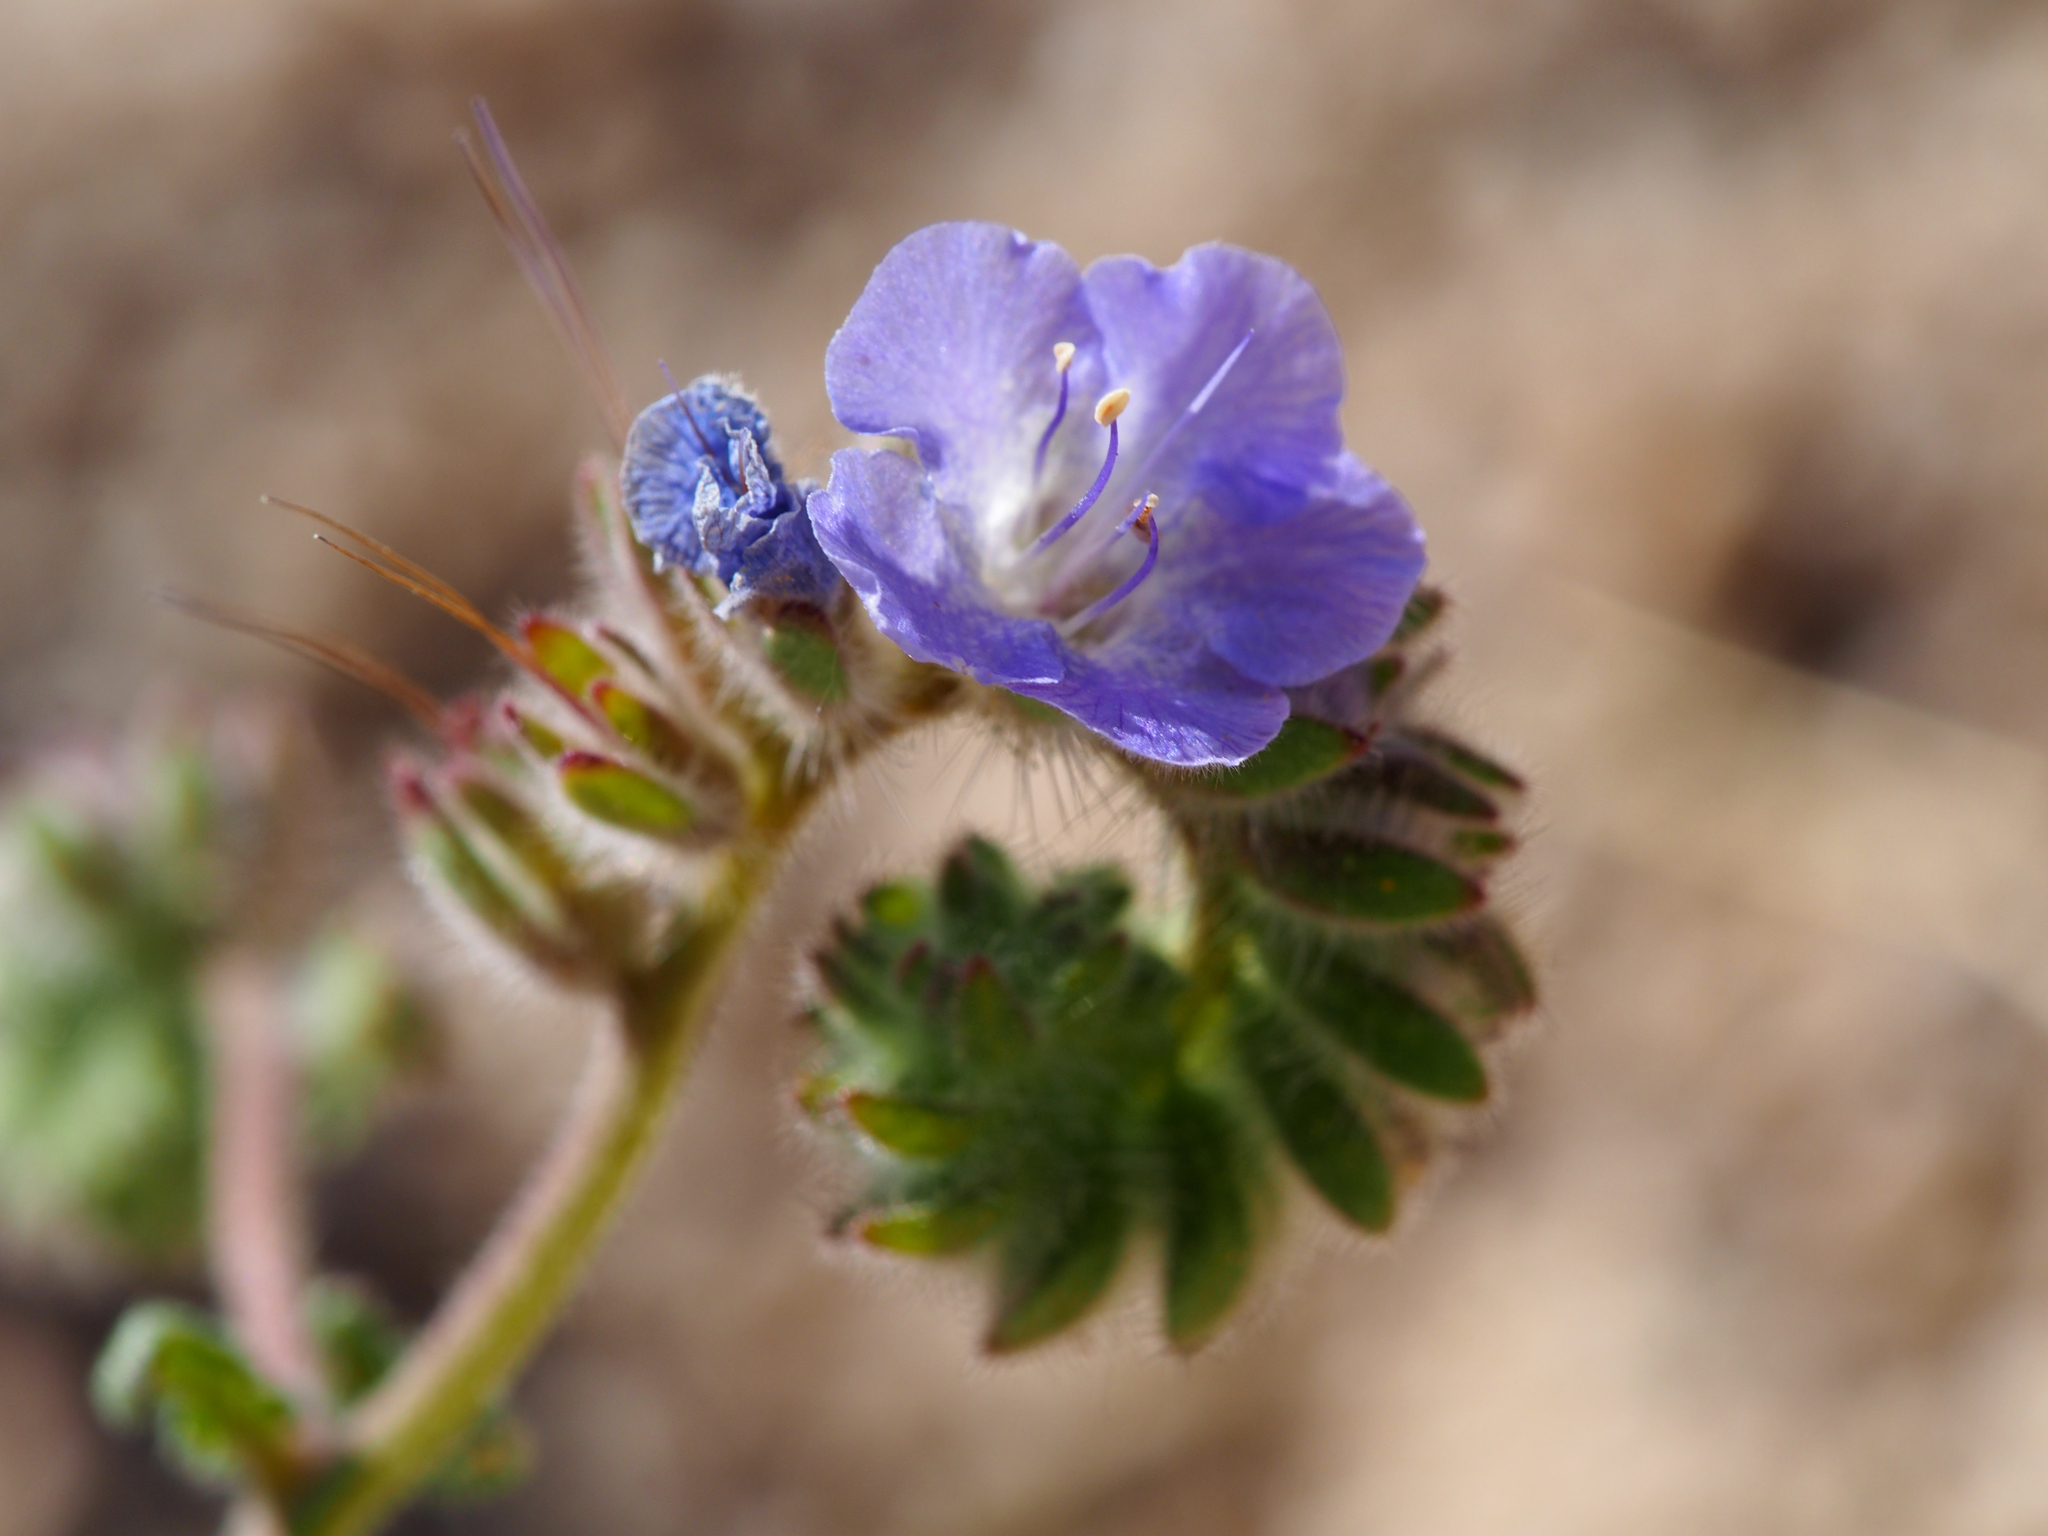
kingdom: Plantae
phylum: Tracheophyta
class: Magnoliopsida
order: Boraginales
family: Hydrophyllaceae
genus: Phacelia
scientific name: Phacelia distans
